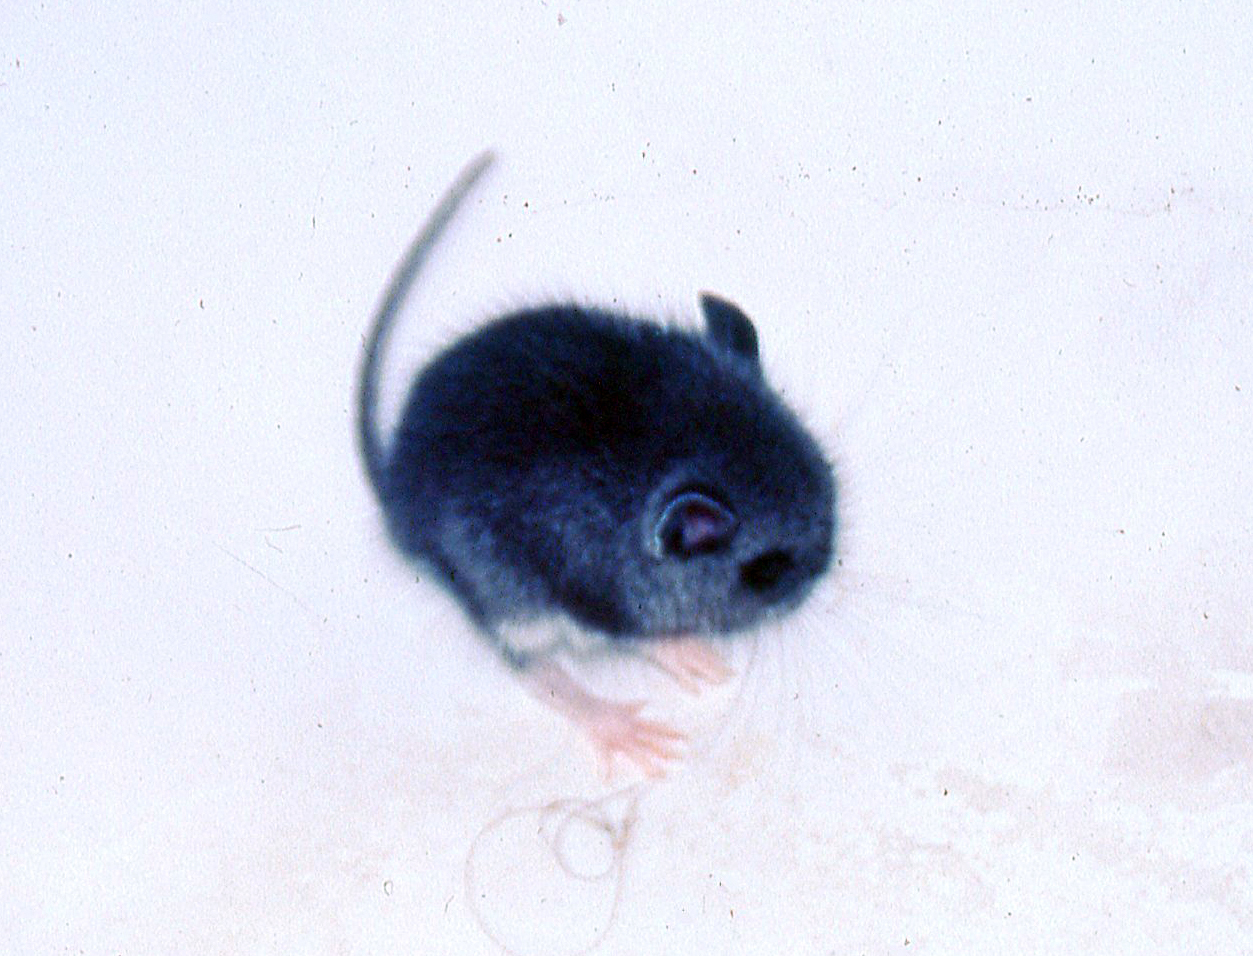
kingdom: Animalia
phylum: Chordata
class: Mammalia
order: Rodentia
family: Cricetidae
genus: Peromyscus
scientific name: Peromyscus maniculatus
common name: Deer mouse
